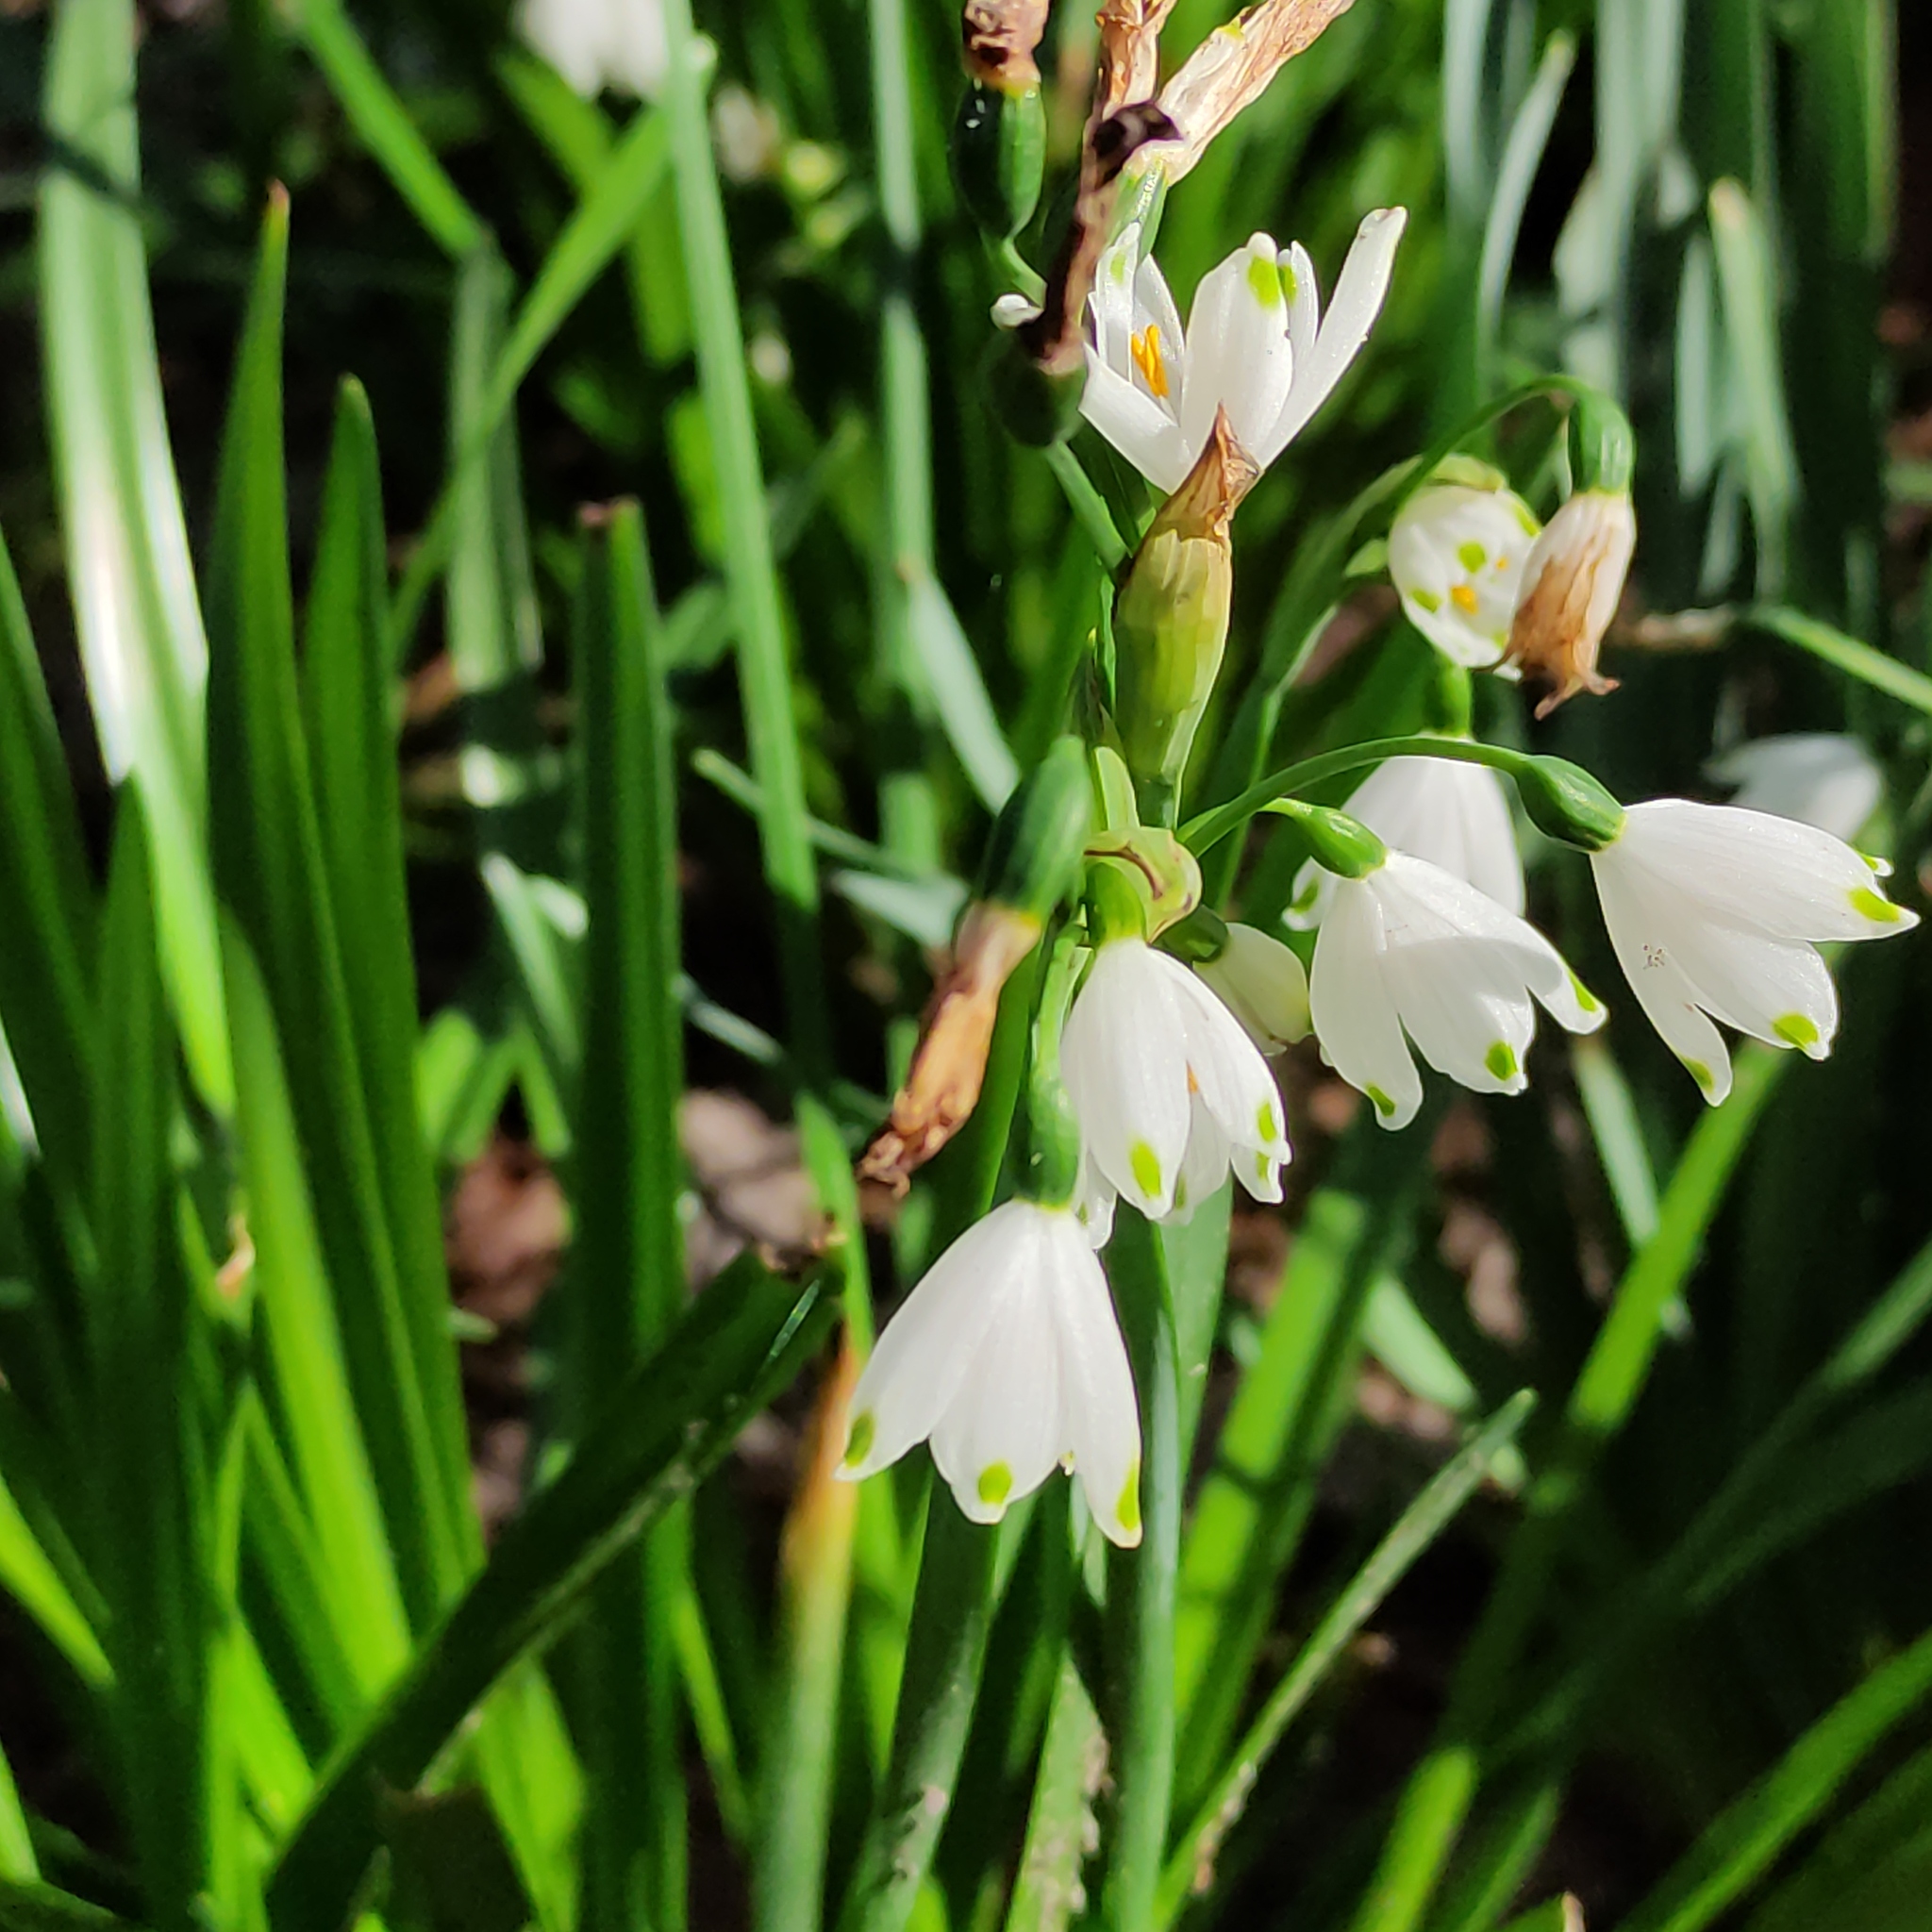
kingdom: Plantae
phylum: Tracheophyta
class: Liliopsida
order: Asparagales
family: Amaryllidaceae
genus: Leucojum
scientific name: Leucojum aestivum
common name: Summer snowflake
